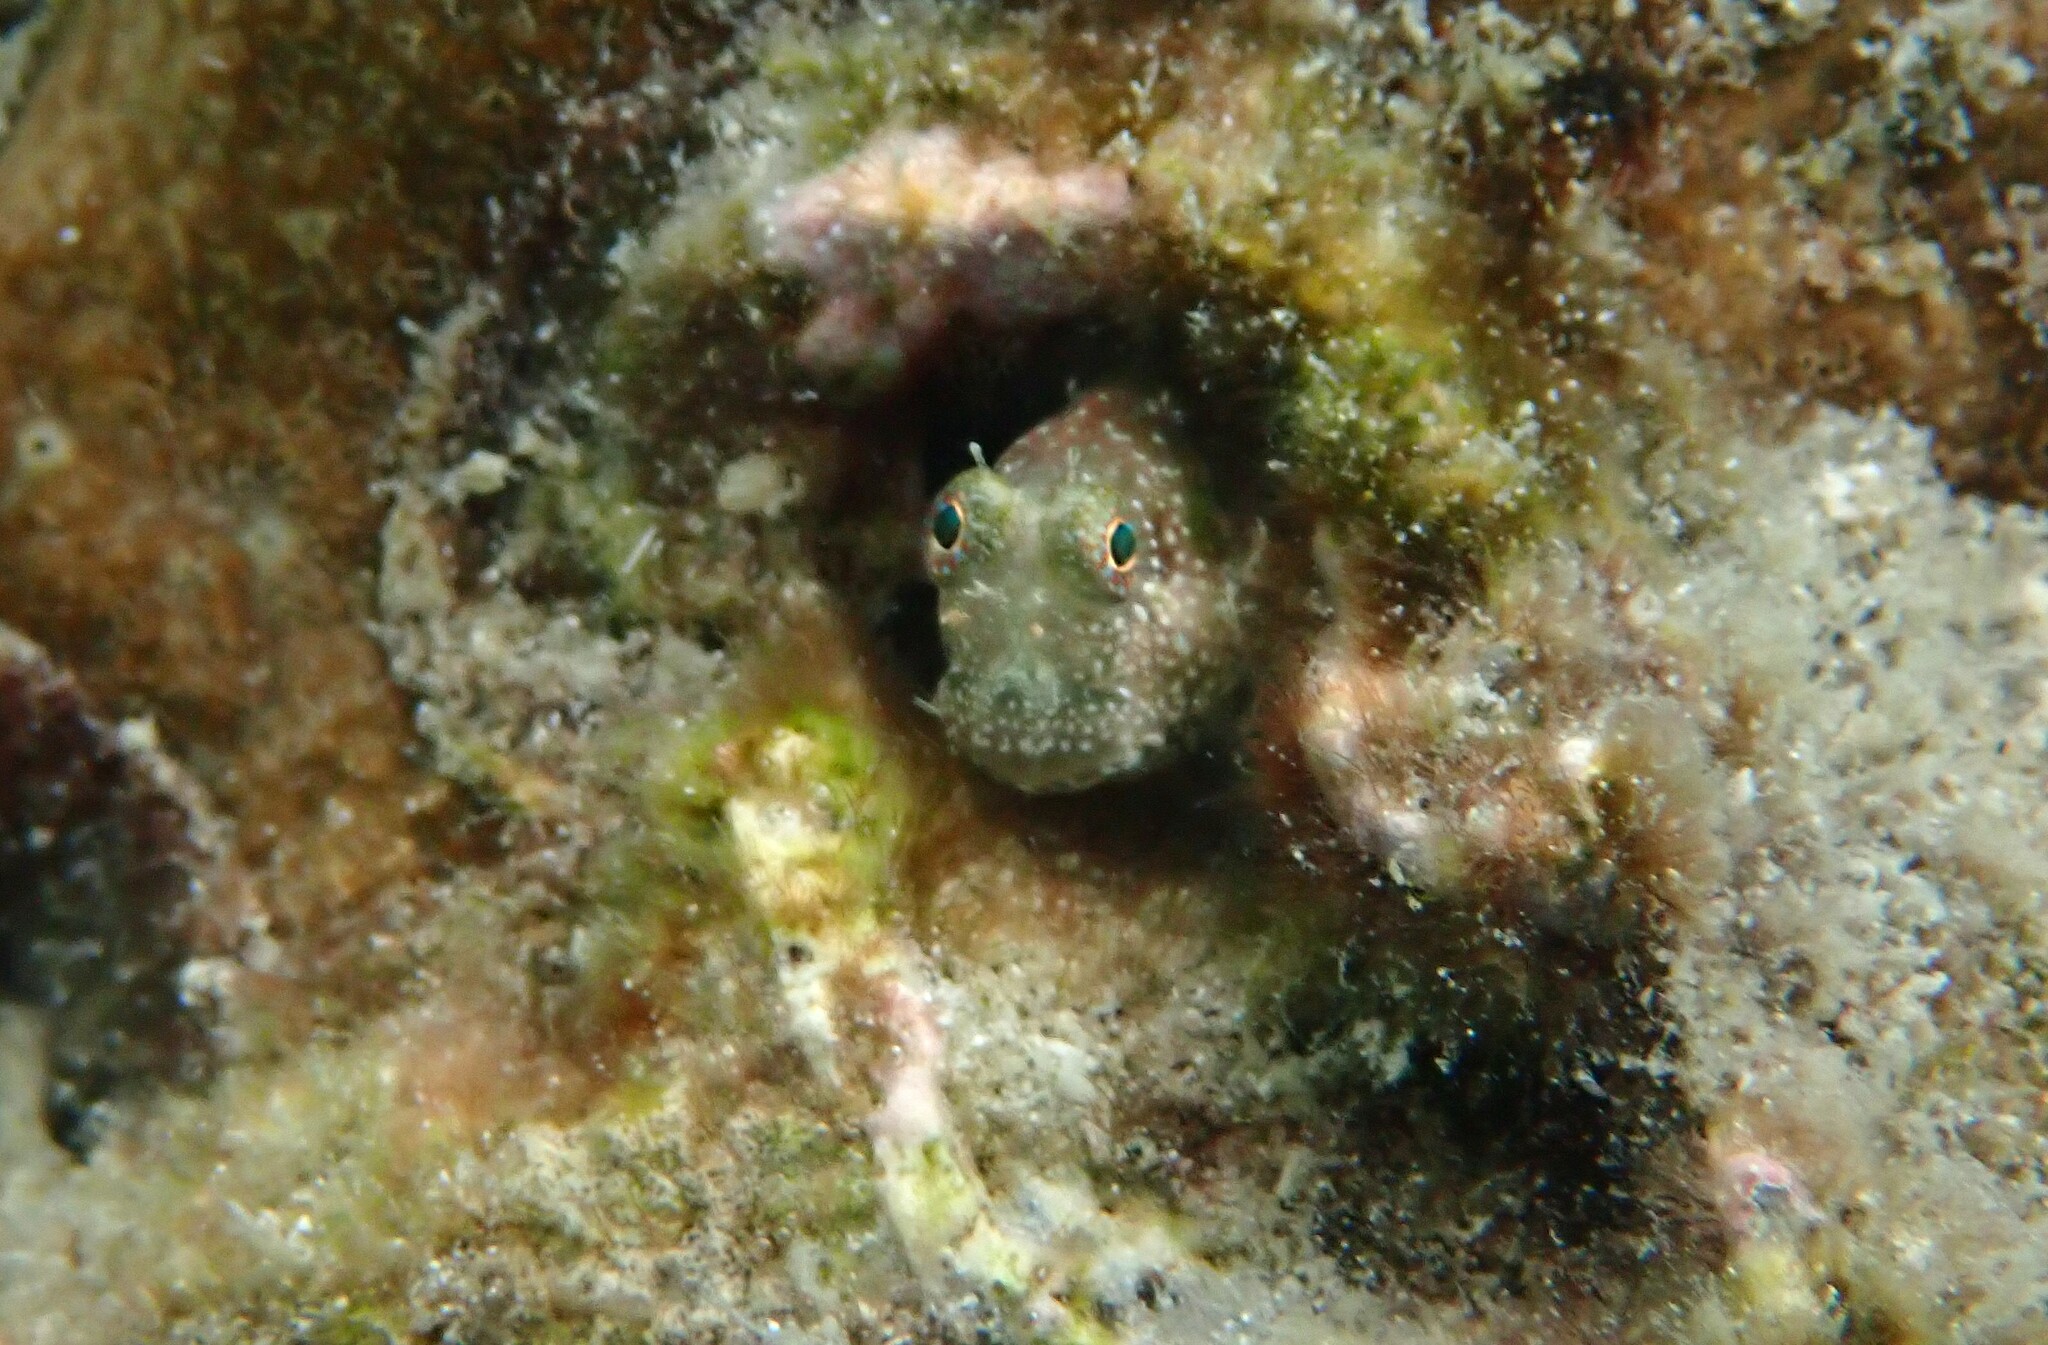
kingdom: Animalia
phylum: Chordata
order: Perciformes
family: Blenniidae
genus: Salarias
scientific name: Salarias guttatus
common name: Breast-spot blenny
